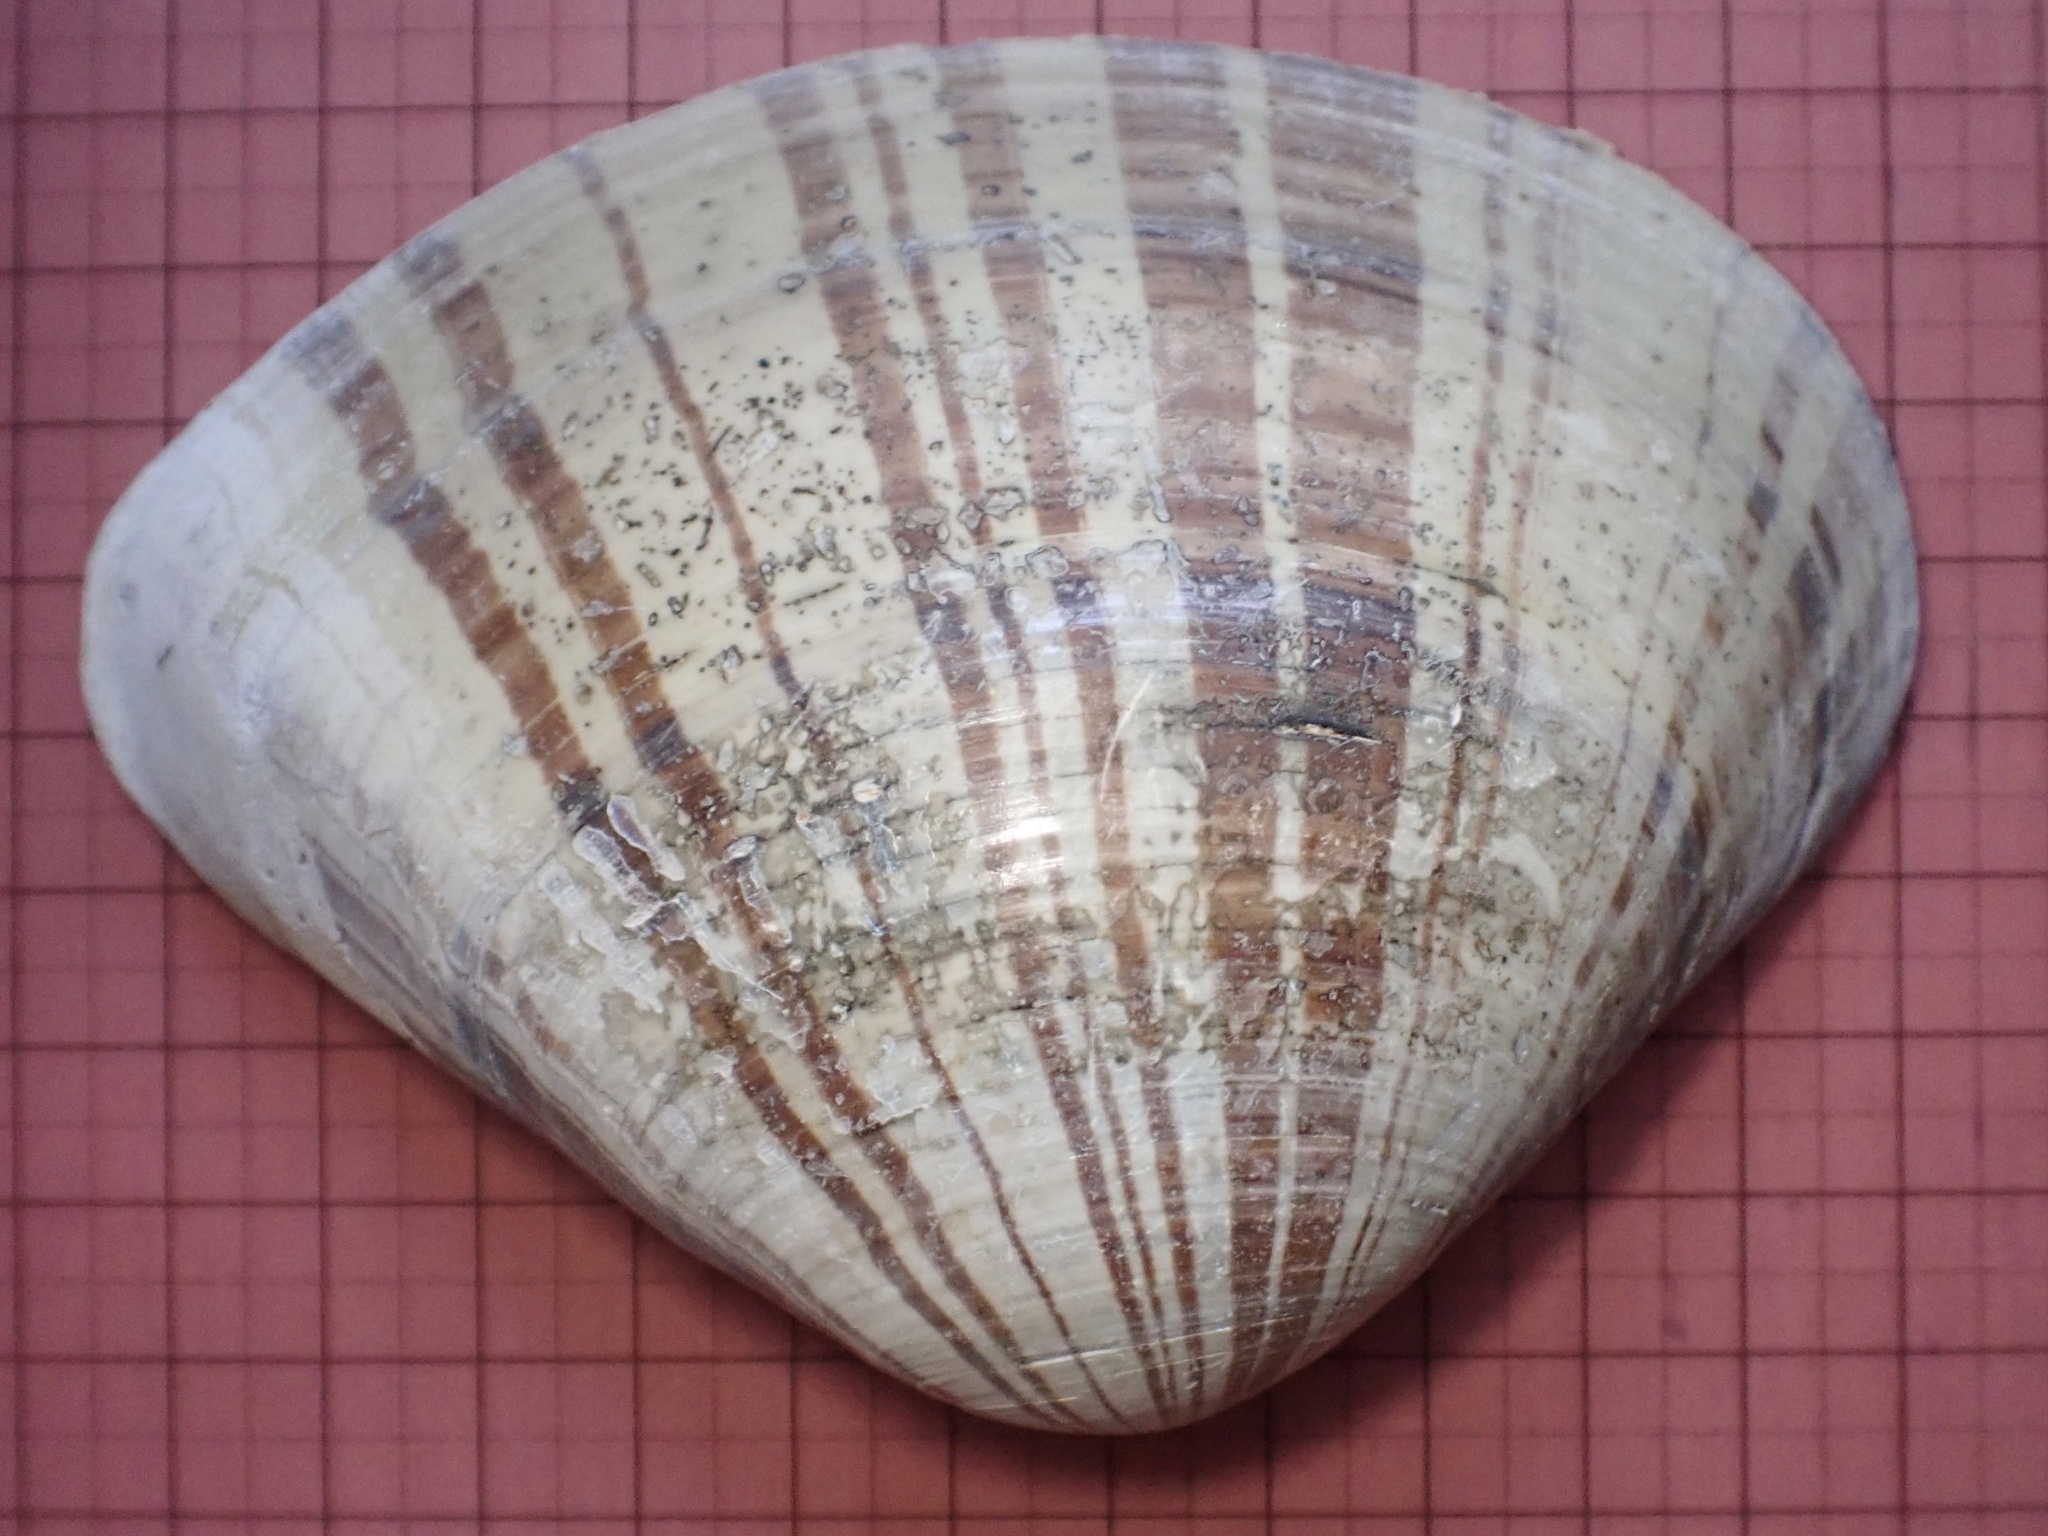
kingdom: Animalia
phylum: Mollusca
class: Bivalvia
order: Venerida
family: Veneridae
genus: Tivela
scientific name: Tivela stultorum
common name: Pismo clam
